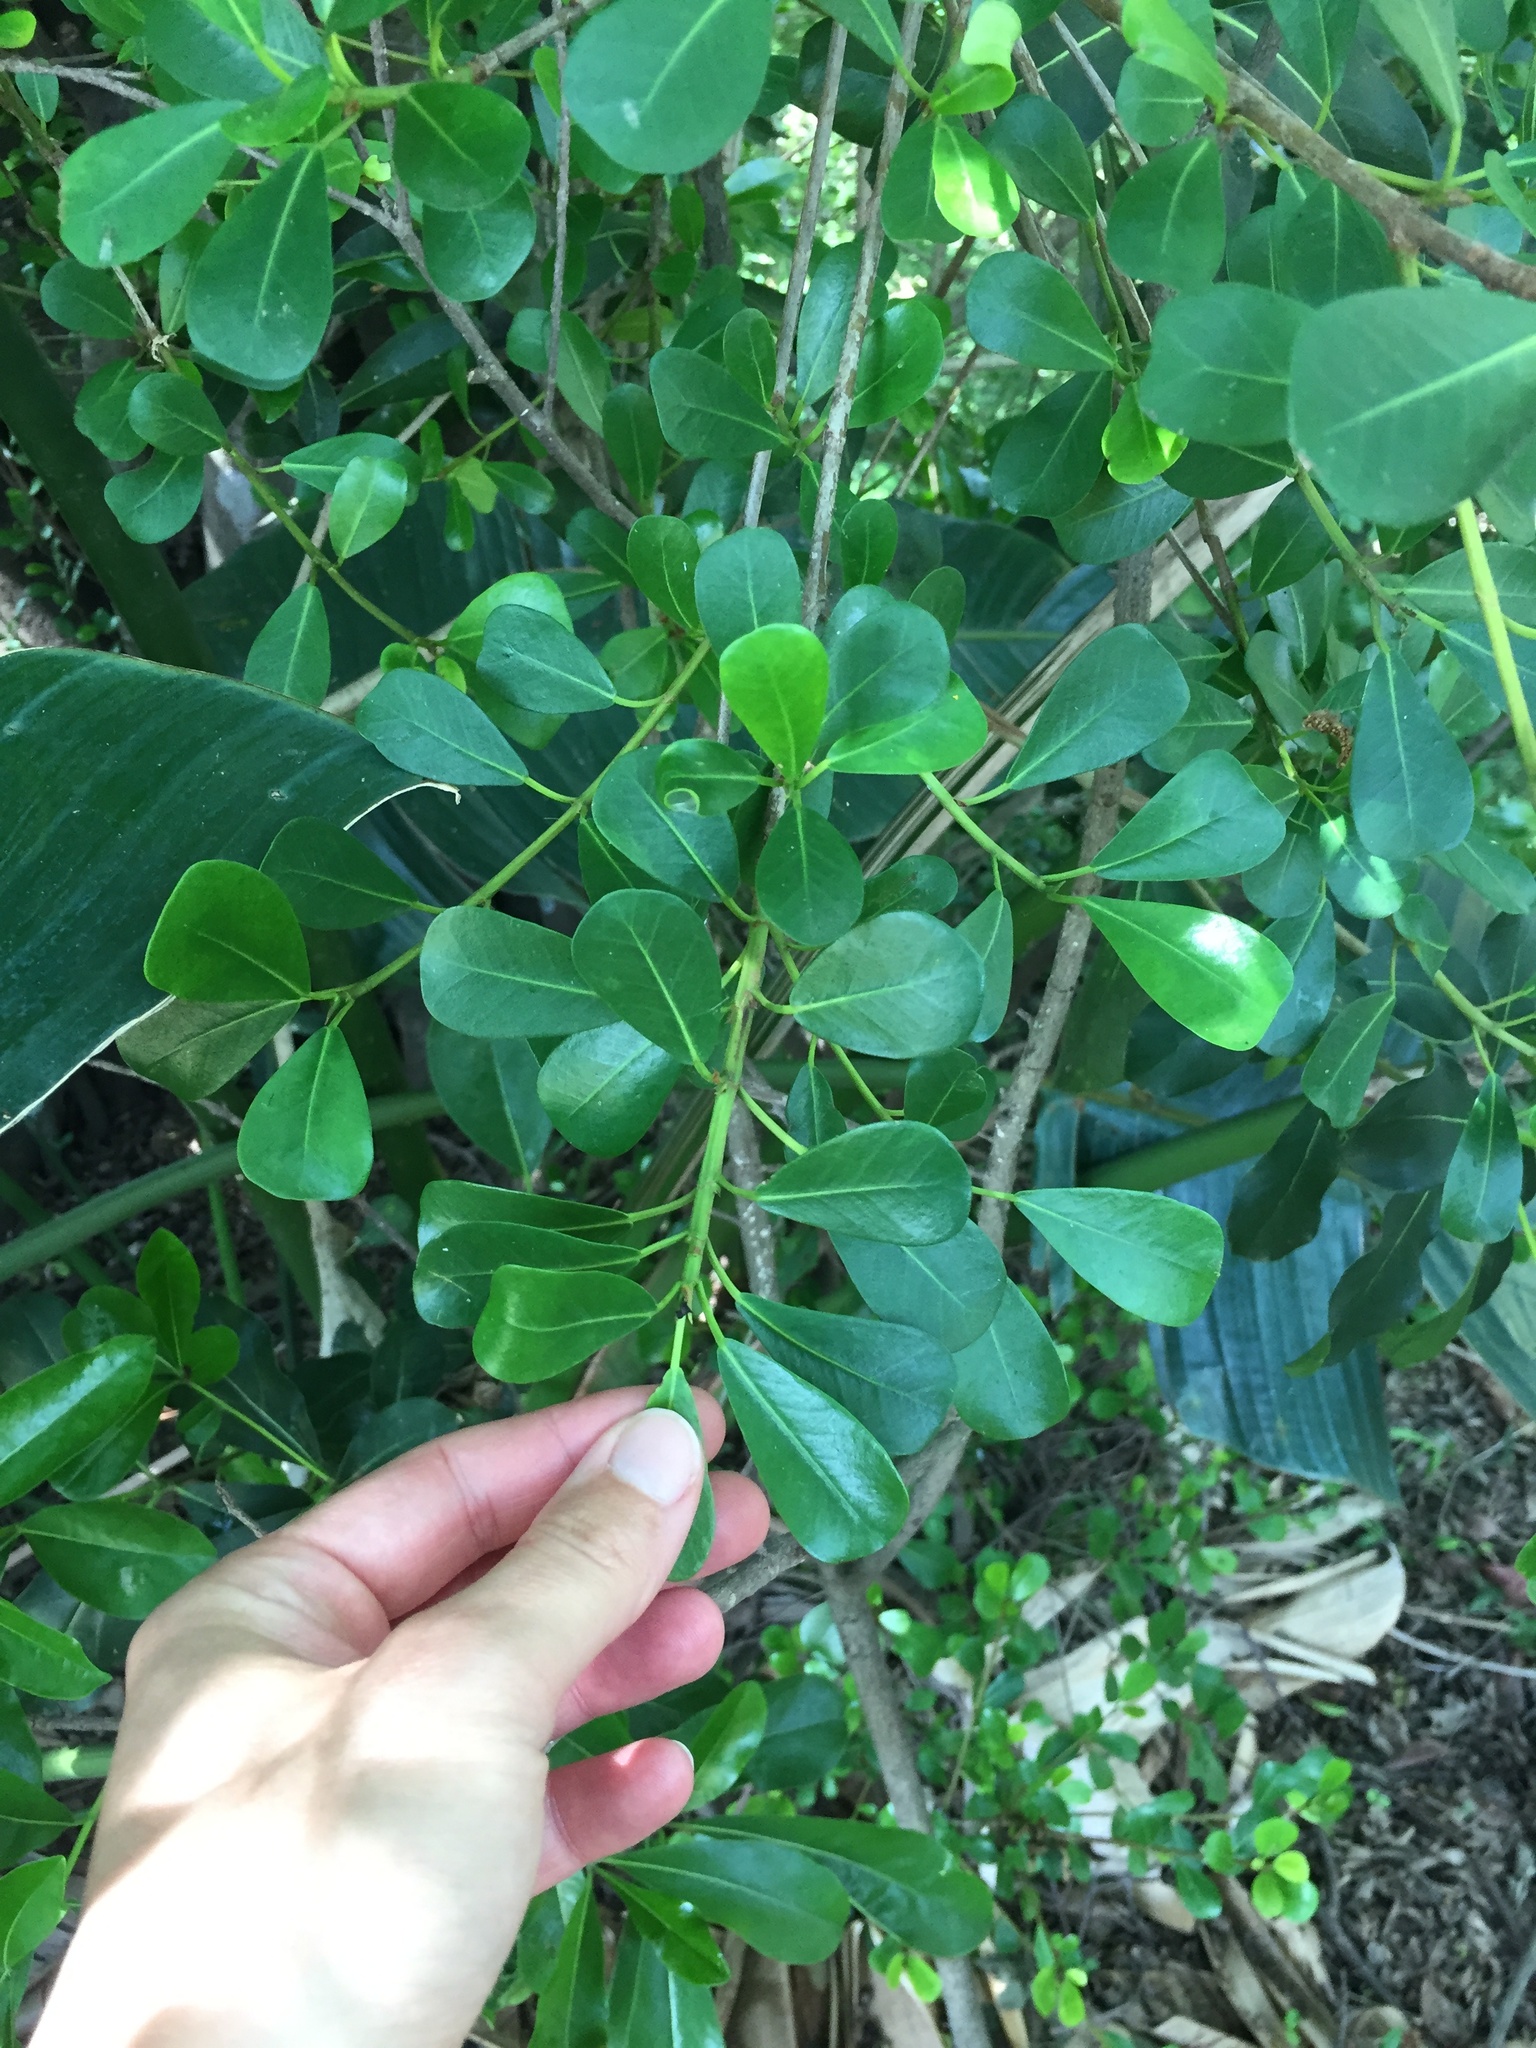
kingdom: Plantae
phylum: Tracheophyta
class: Magnoliopsida
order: Apiales
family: Pittosporaceae
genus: Pittosporum
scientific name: Pittosporum viridiflorum
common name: Cape cheesewood
